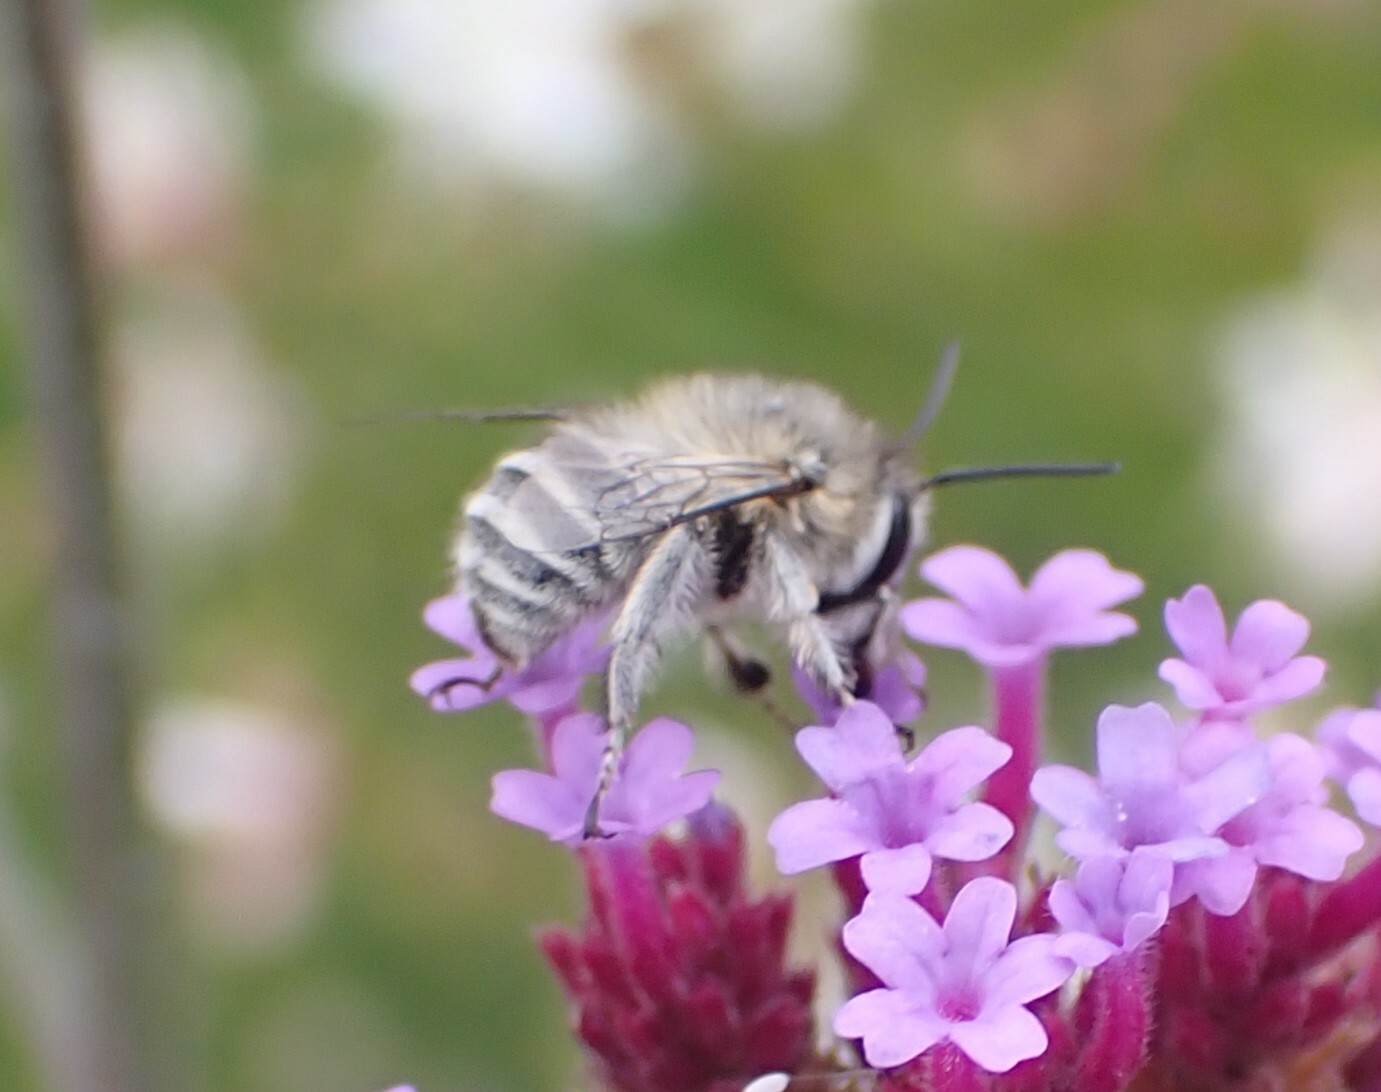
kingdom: Animalia
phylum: Arthropoda
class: Insecta
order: Hymenoptera
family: Apidae
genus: Anthophora
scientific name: Anthophora pubescens
